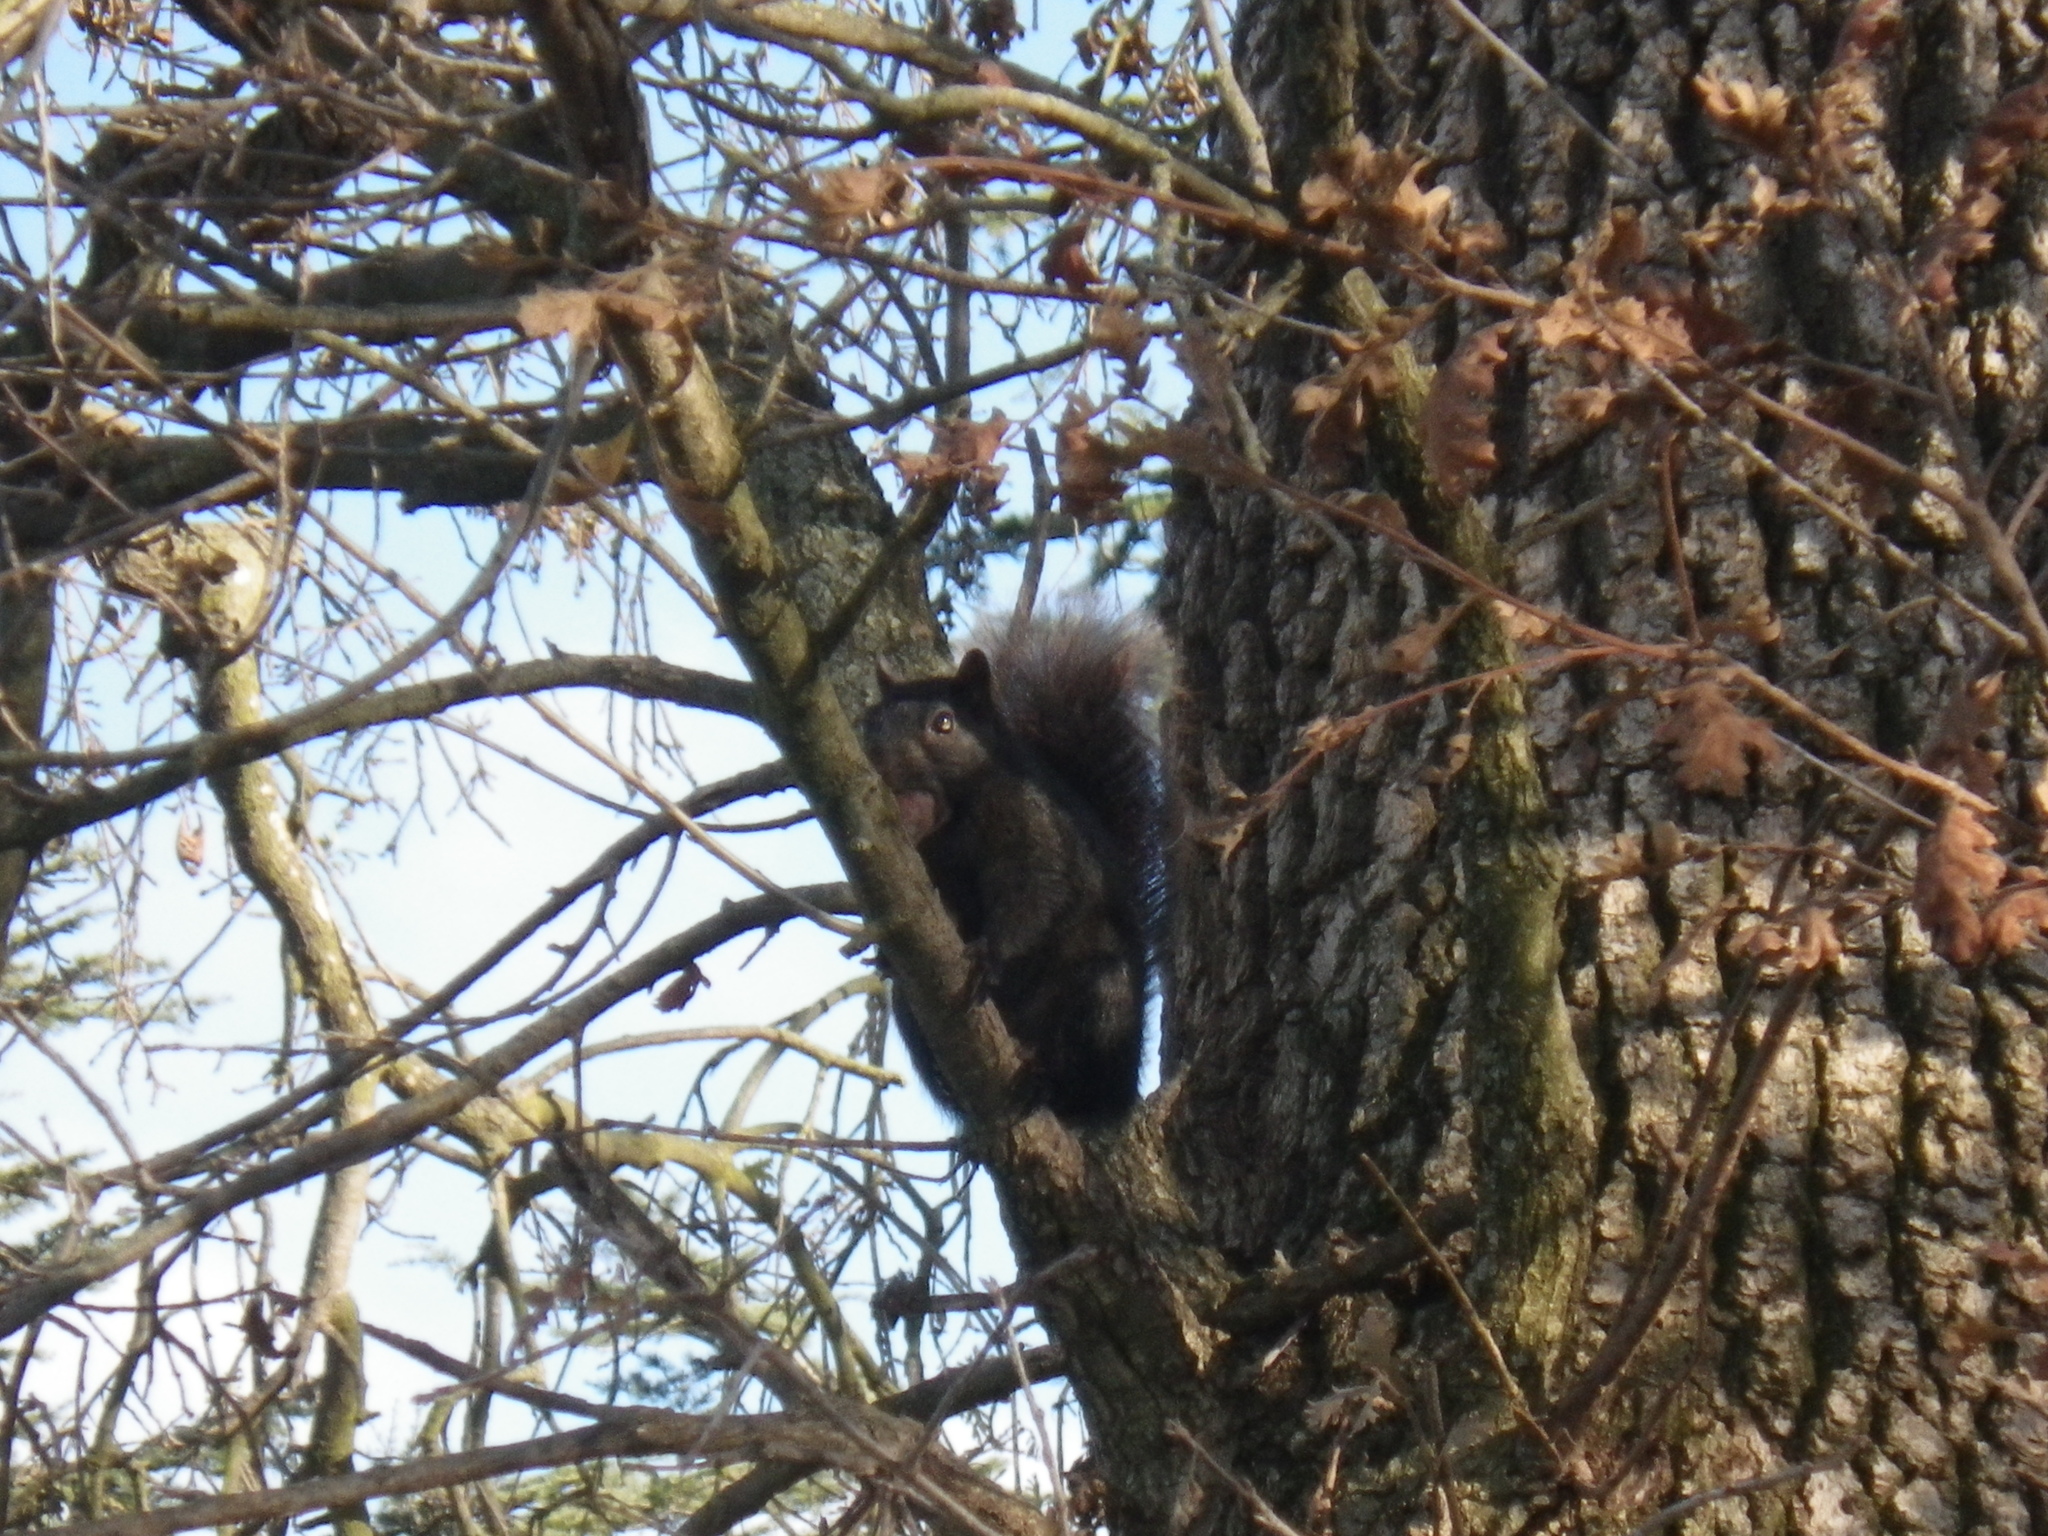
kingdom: Animalia
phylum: Chordata
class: Mammalia
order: Rodentia
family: Sciuridae
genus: Sciurus
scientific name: Sciurus carolinensis
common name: Eastern gray squirrel
